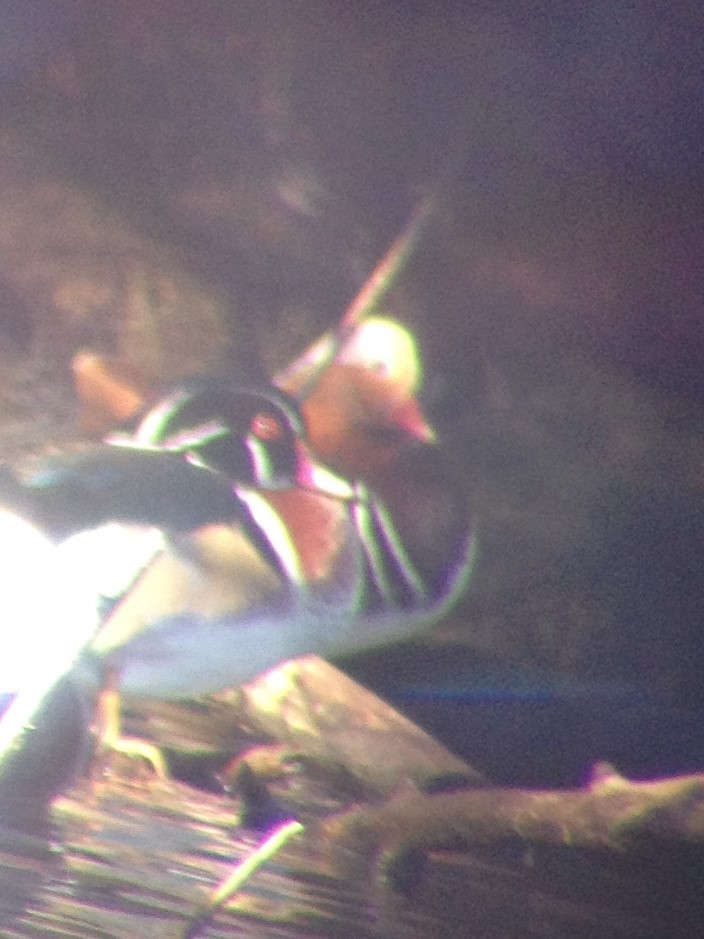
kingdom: Animalia
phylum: Chordata
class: Aves
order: Anseriformes
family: Anatidae
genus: Aix
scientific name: Aix galericulata
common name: Mandarin duck
